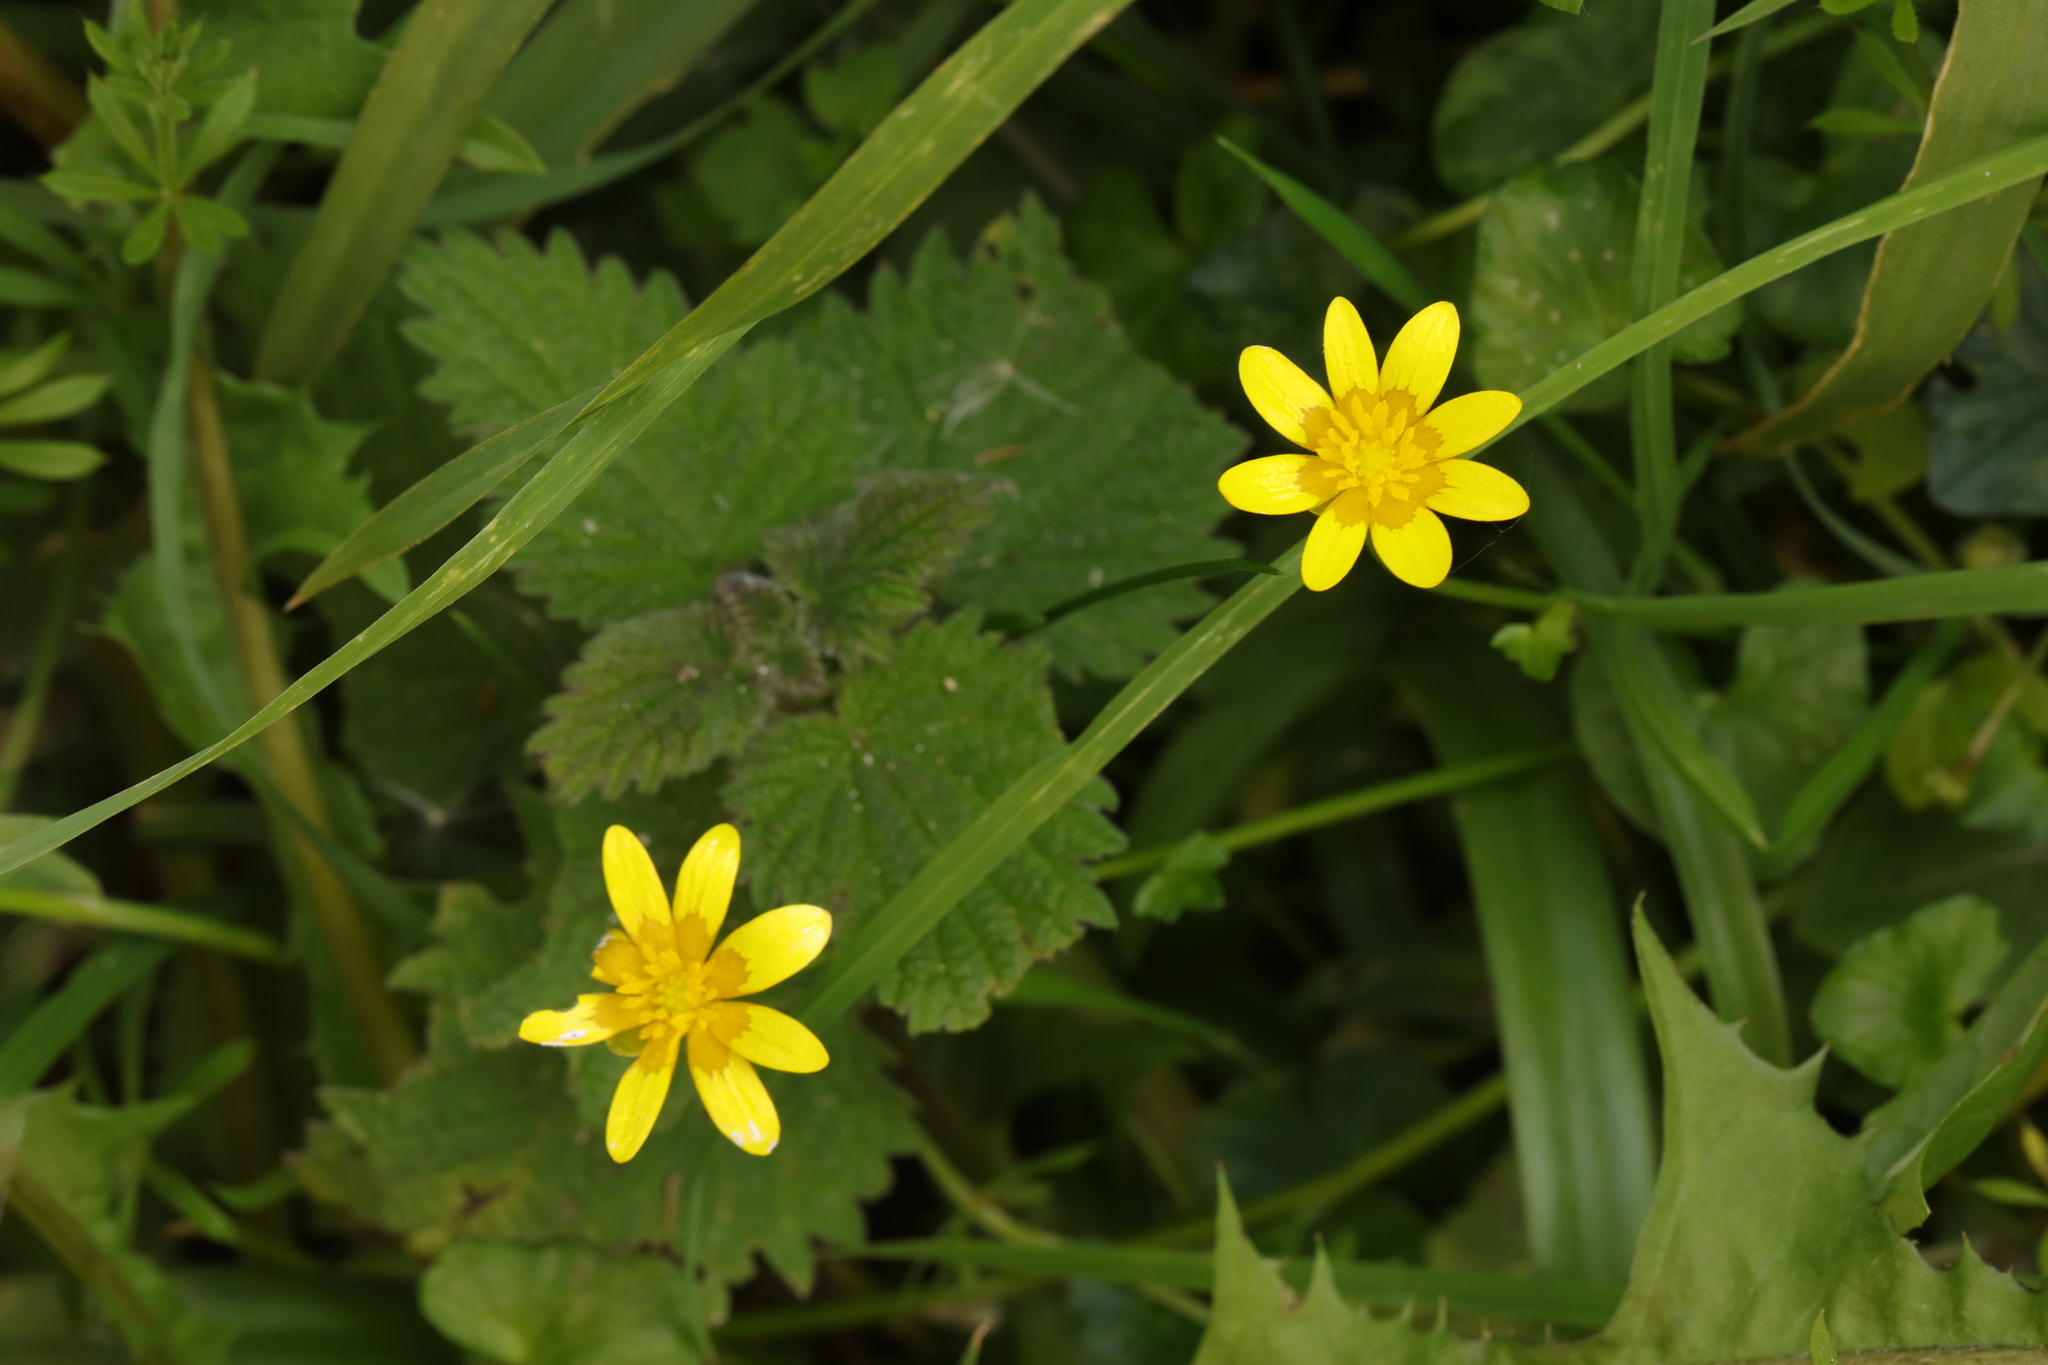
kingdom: Plantae
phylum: Tracheophyta
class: Magnoliopsida
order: Ranunculales
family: Ranunculaceae
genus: Ficaria
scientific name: Ficaria verna
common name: Lesser celandine
